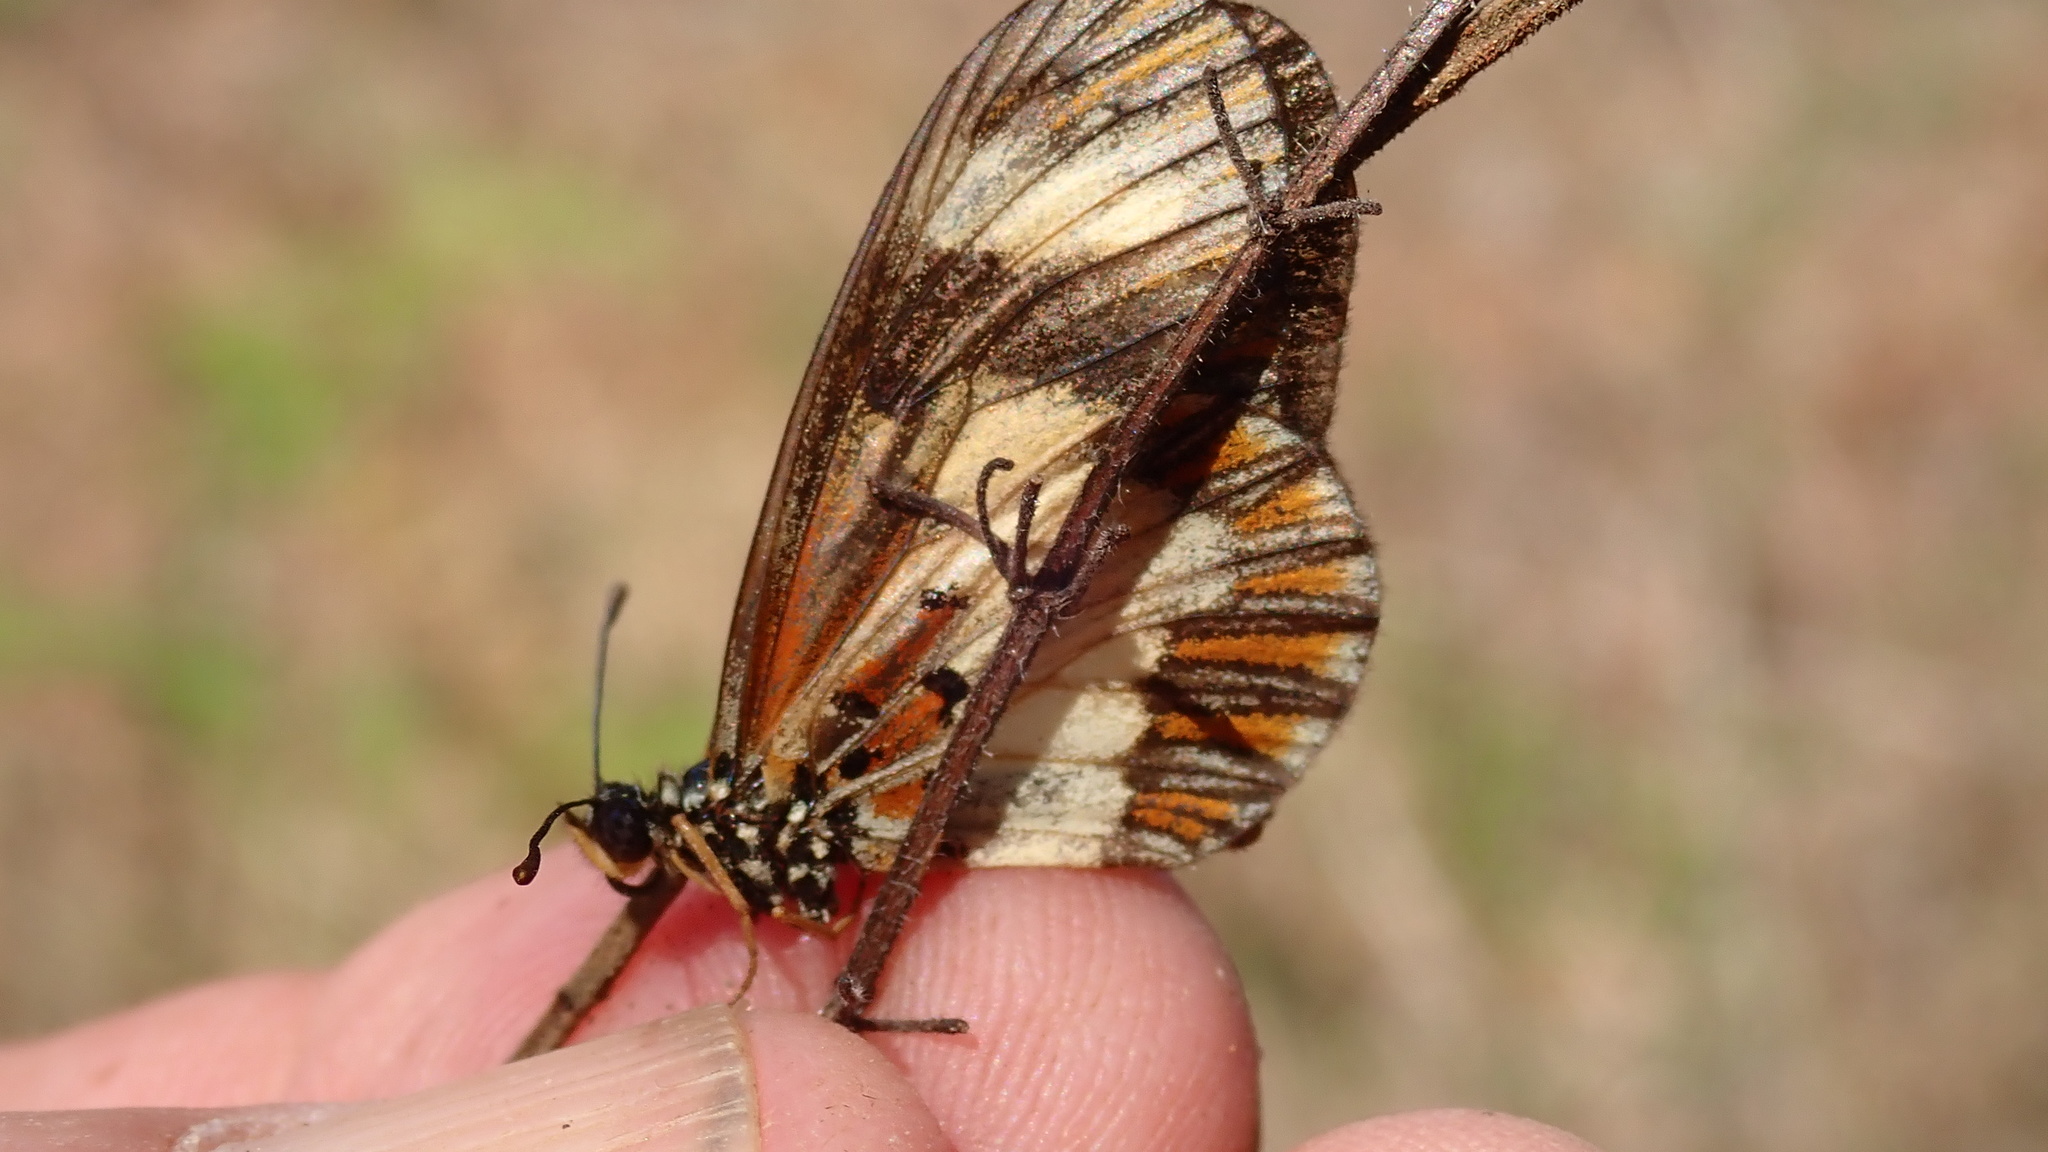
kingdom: Animalia
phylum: Arthropoda
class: Insecta
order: Lepidoptera
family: Nymphalidae
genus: Acraea
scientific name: Acraea cabira
